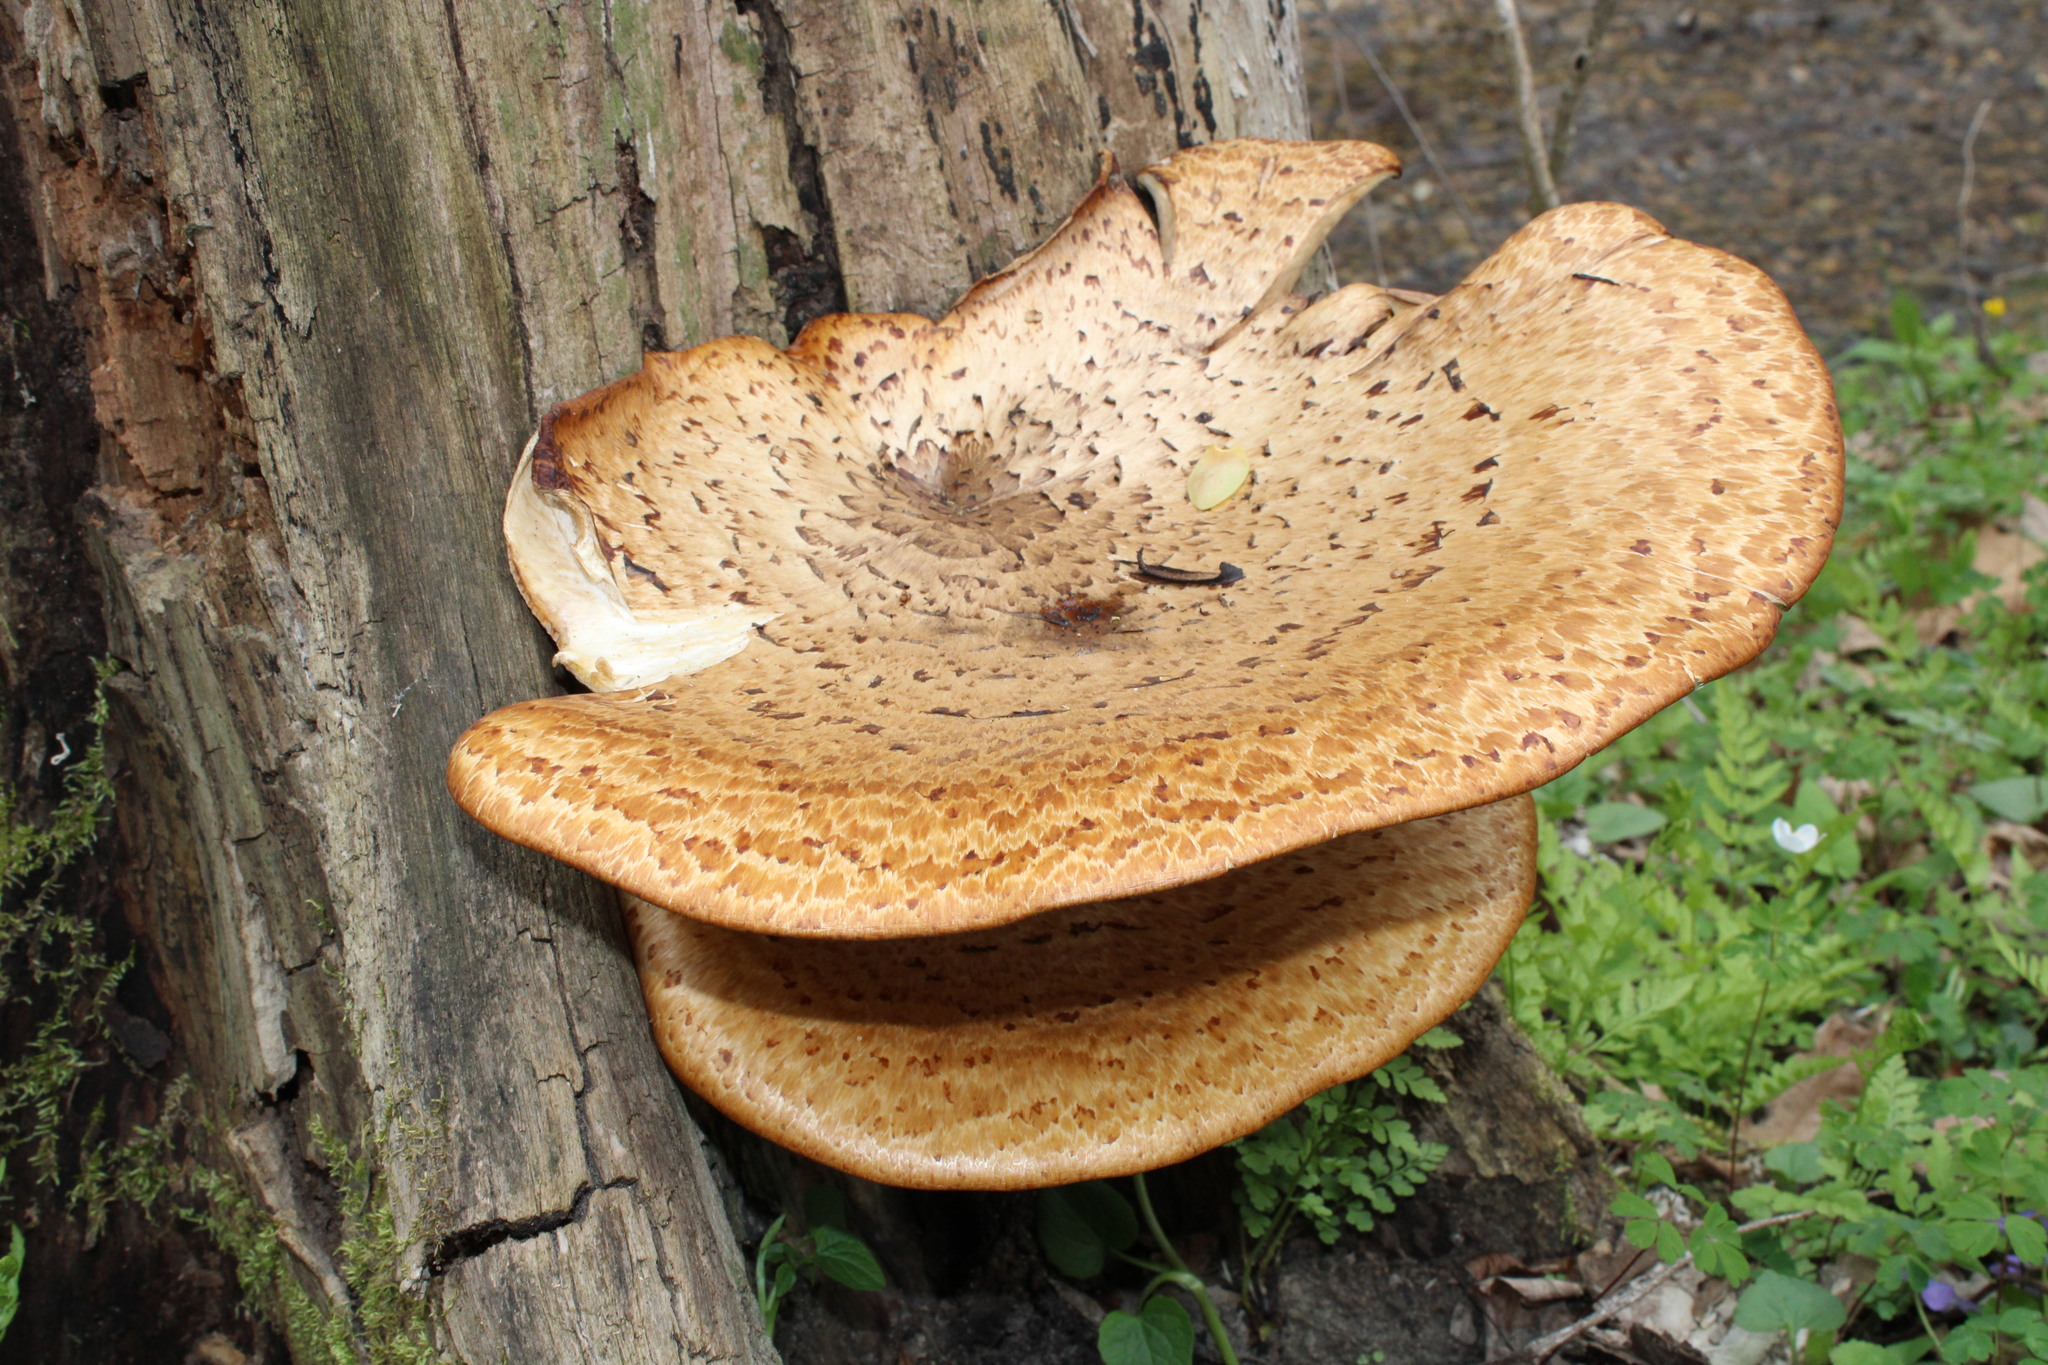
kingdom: Fungi
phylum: Basidiomycota
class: Agaricomycetes
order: Polyporales
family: Polyporaceae
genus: Cerioporus
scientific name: Cerioporus squamosus
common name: Dryad's saddle
